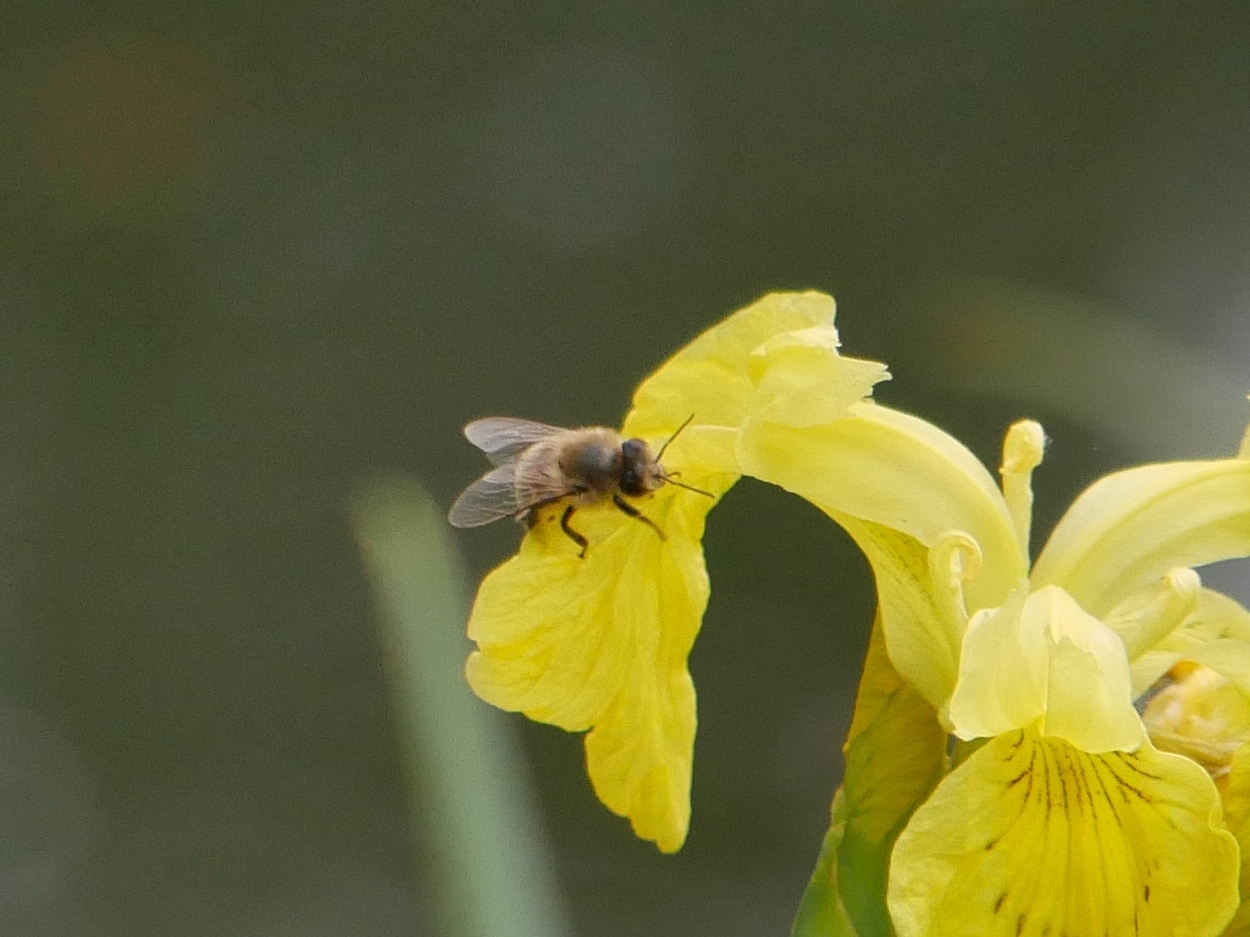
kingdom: Animalia
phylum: Arthropoda
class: Insecta
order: Hymenoptera
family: Apidae
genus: Apis
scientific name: Apis mellifera
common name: Honey bee
